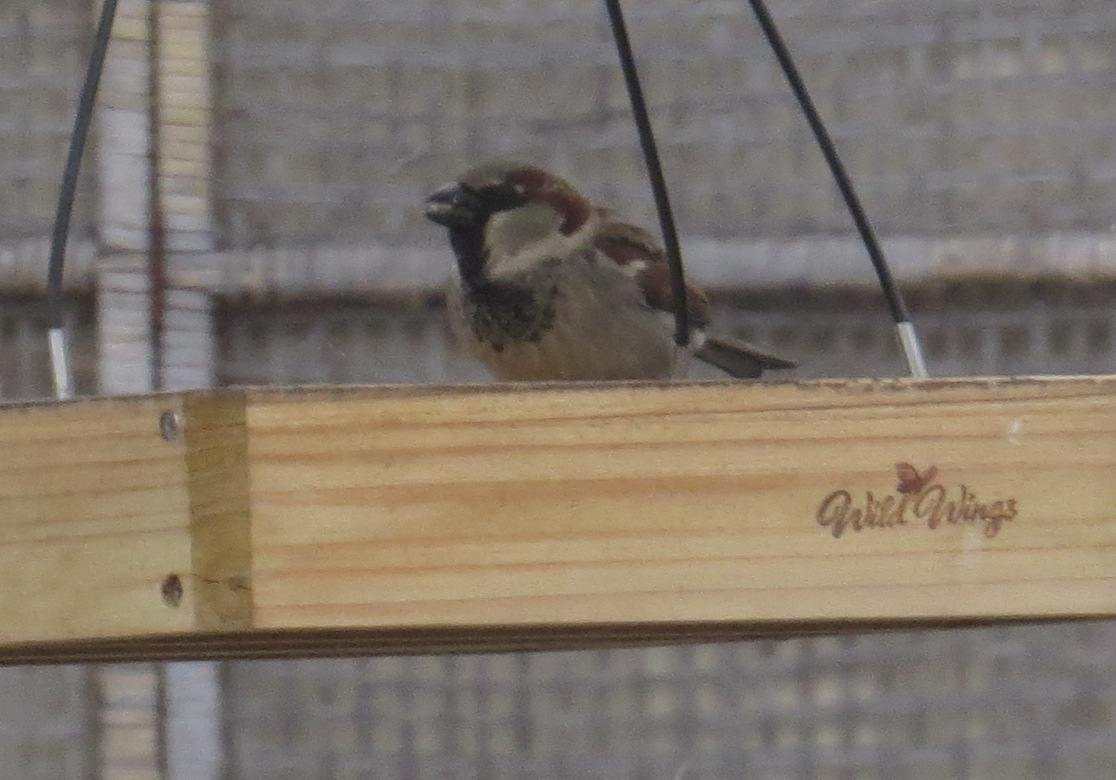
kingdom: Animalia
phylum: Chordata
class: Aves
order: Passeriformes
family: Passeridae
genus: Passer
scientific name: Passer domesticus
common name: House sparrow
